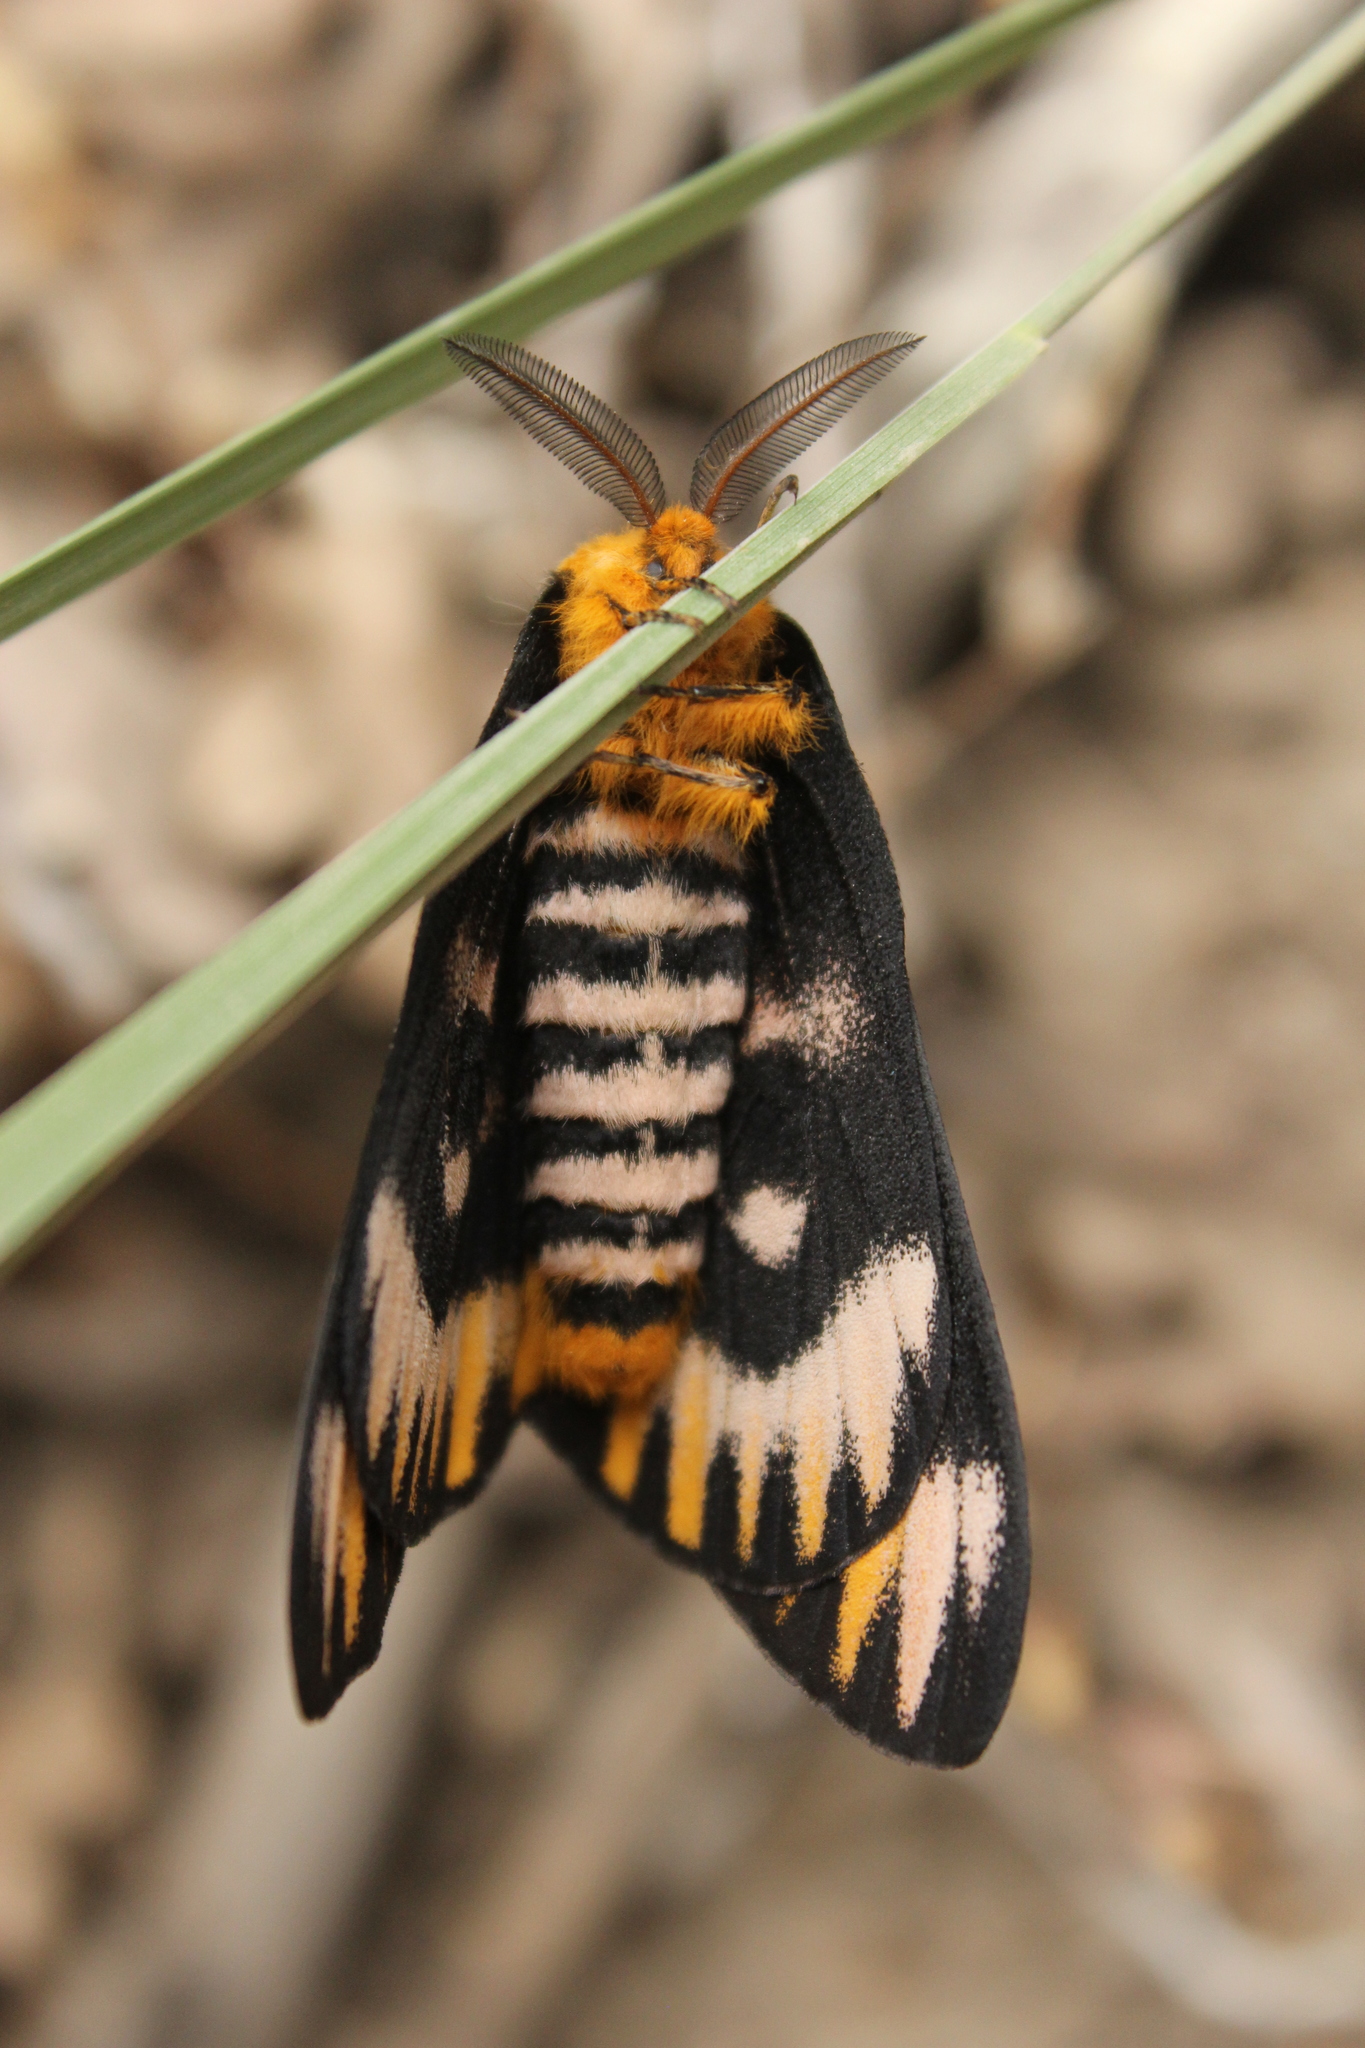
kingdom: Animalia
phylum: Arthropoda
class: Insecta
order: Lepidoptera
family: Saturniidae
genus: Hemileuca
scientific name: Hemileuca eglanterina
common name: Western sheepmoth
